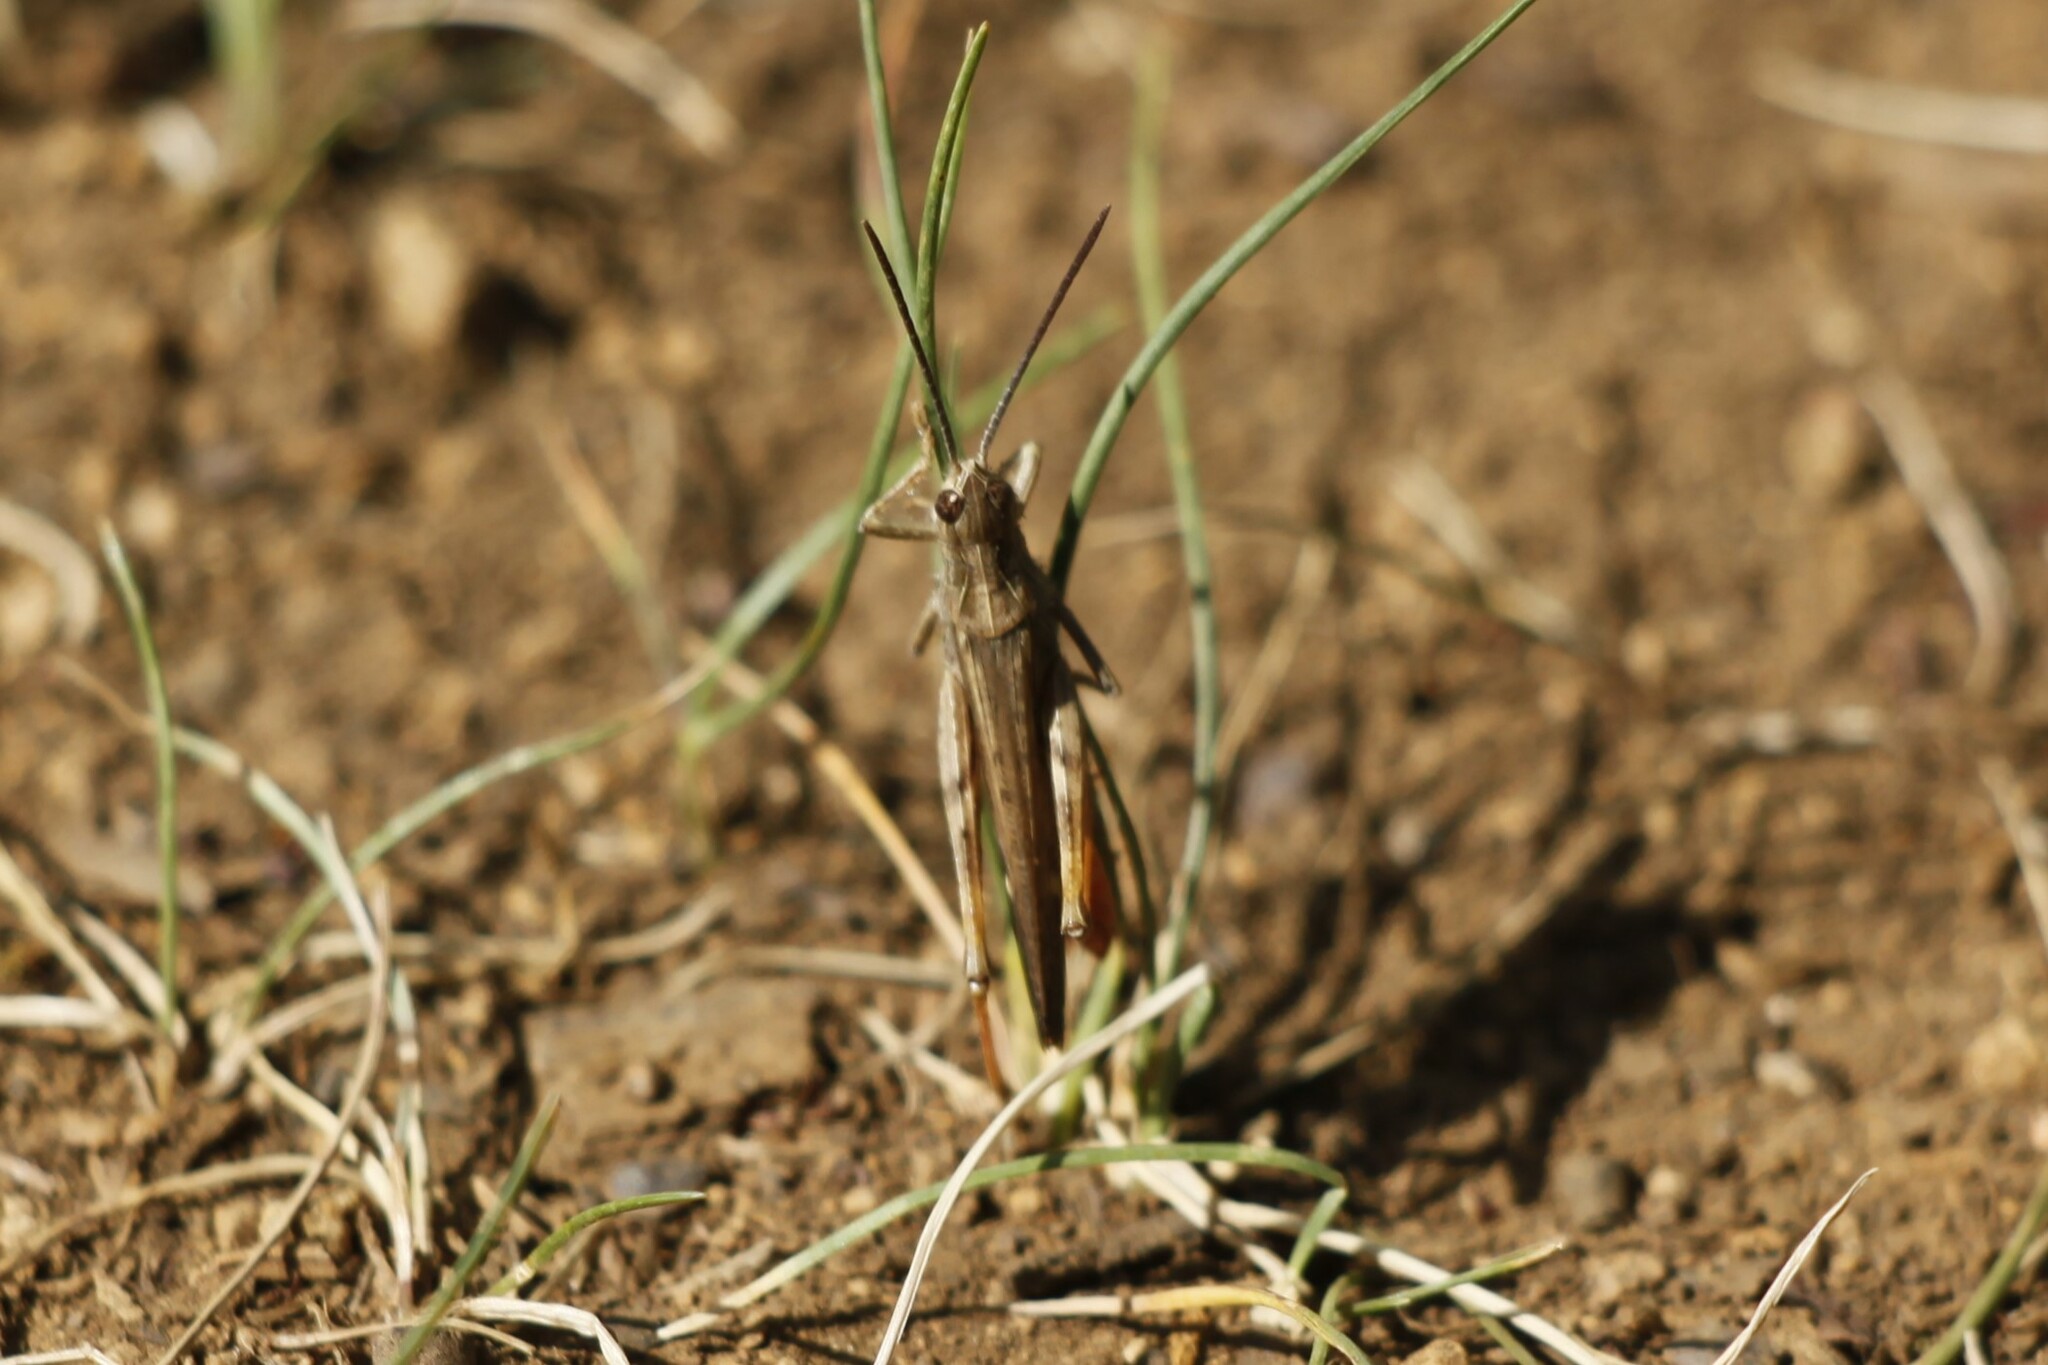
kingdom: Animalia
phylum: Arthropoda
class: Insecta
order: Orthoptera
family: Acrididae
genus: Chorthippus
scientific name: Chorthippus brunneus
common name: Field grasshopper
